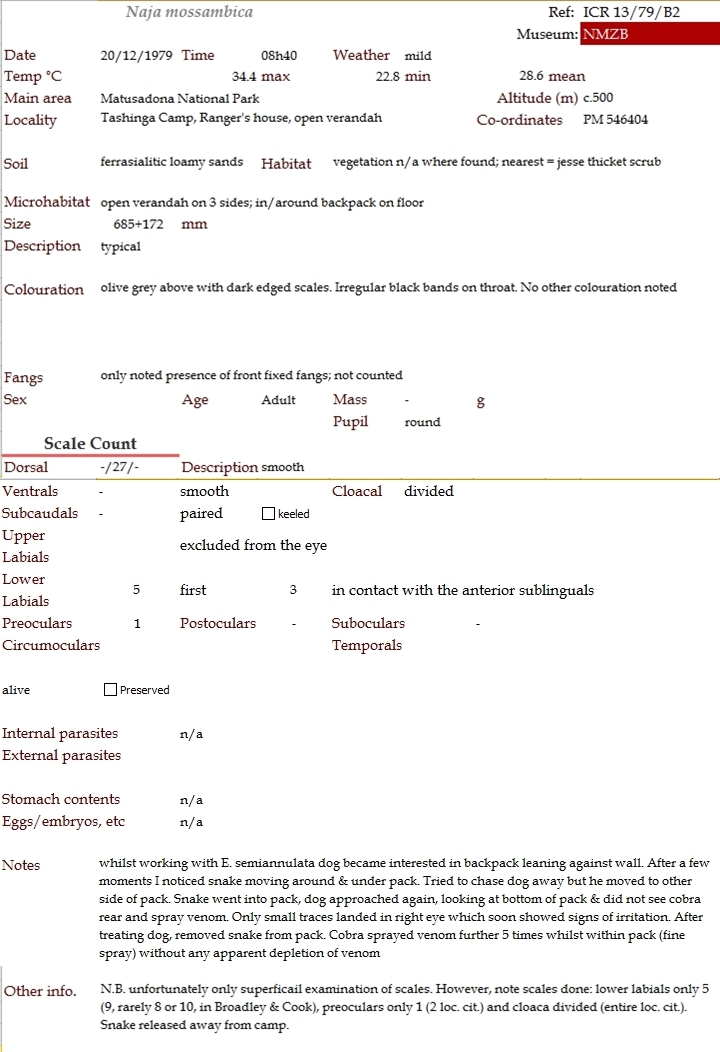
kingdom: Animalia
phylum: Chordata
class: Squamata
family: Elapidae
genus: Naja
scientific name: Naja mossambica
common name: Mozambique spitting cobra
